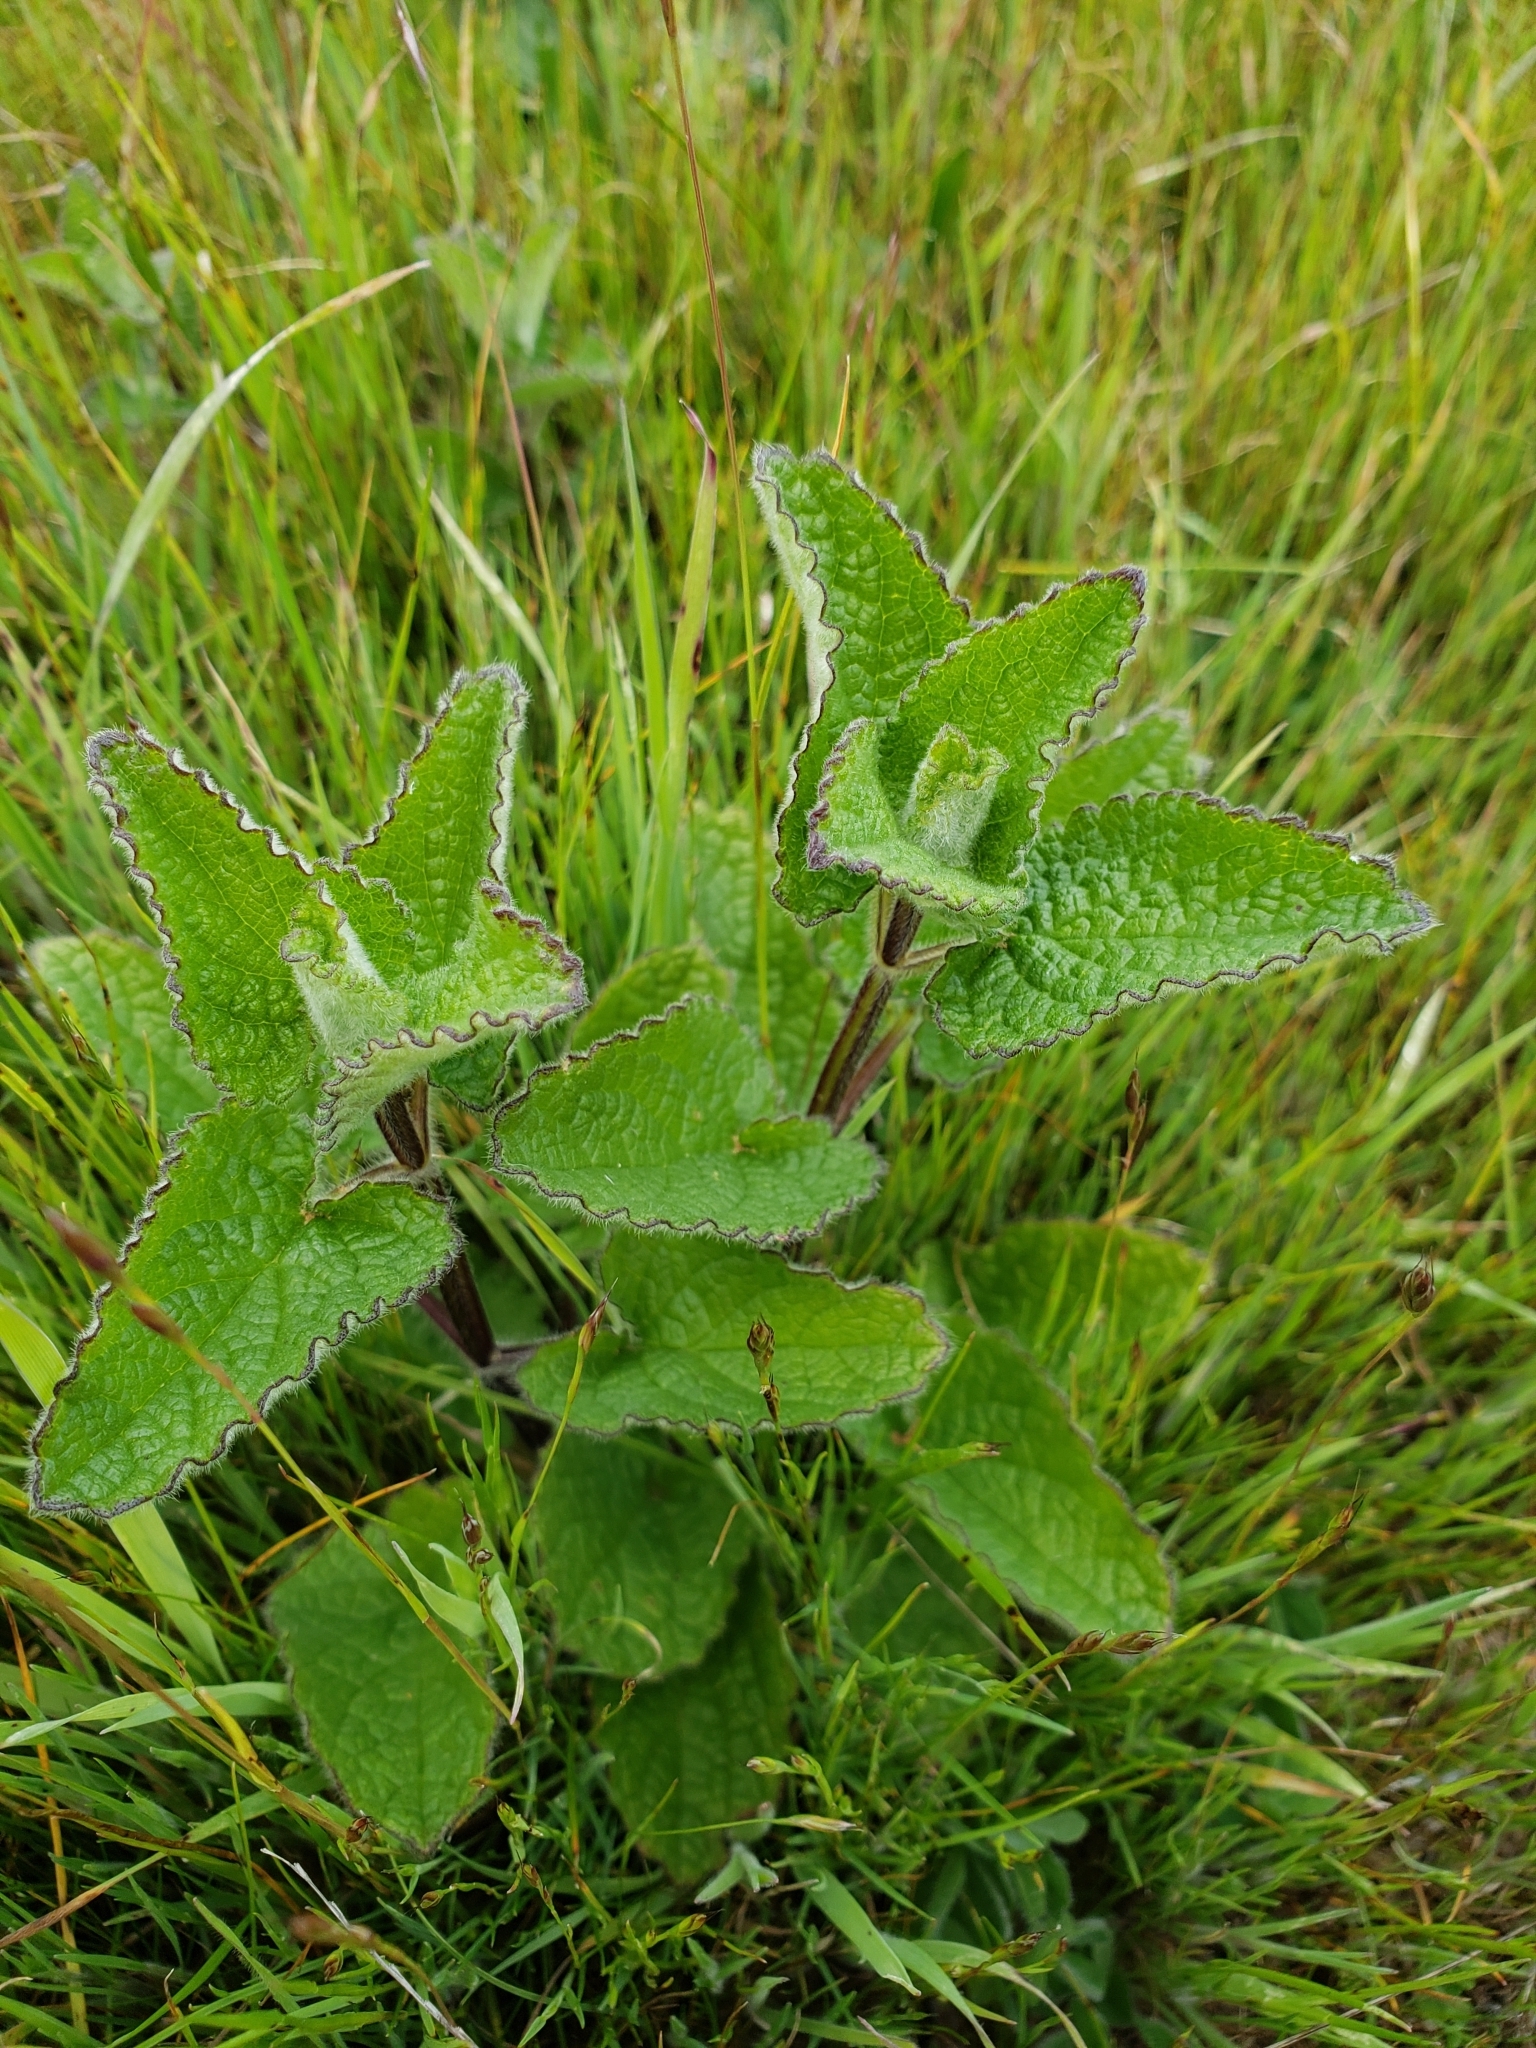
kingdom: Plantae
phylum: Tracheophyta
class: Magnoliopsida
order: Lamiales
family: Lamiaceae
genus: Stachys
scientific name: Stachys
